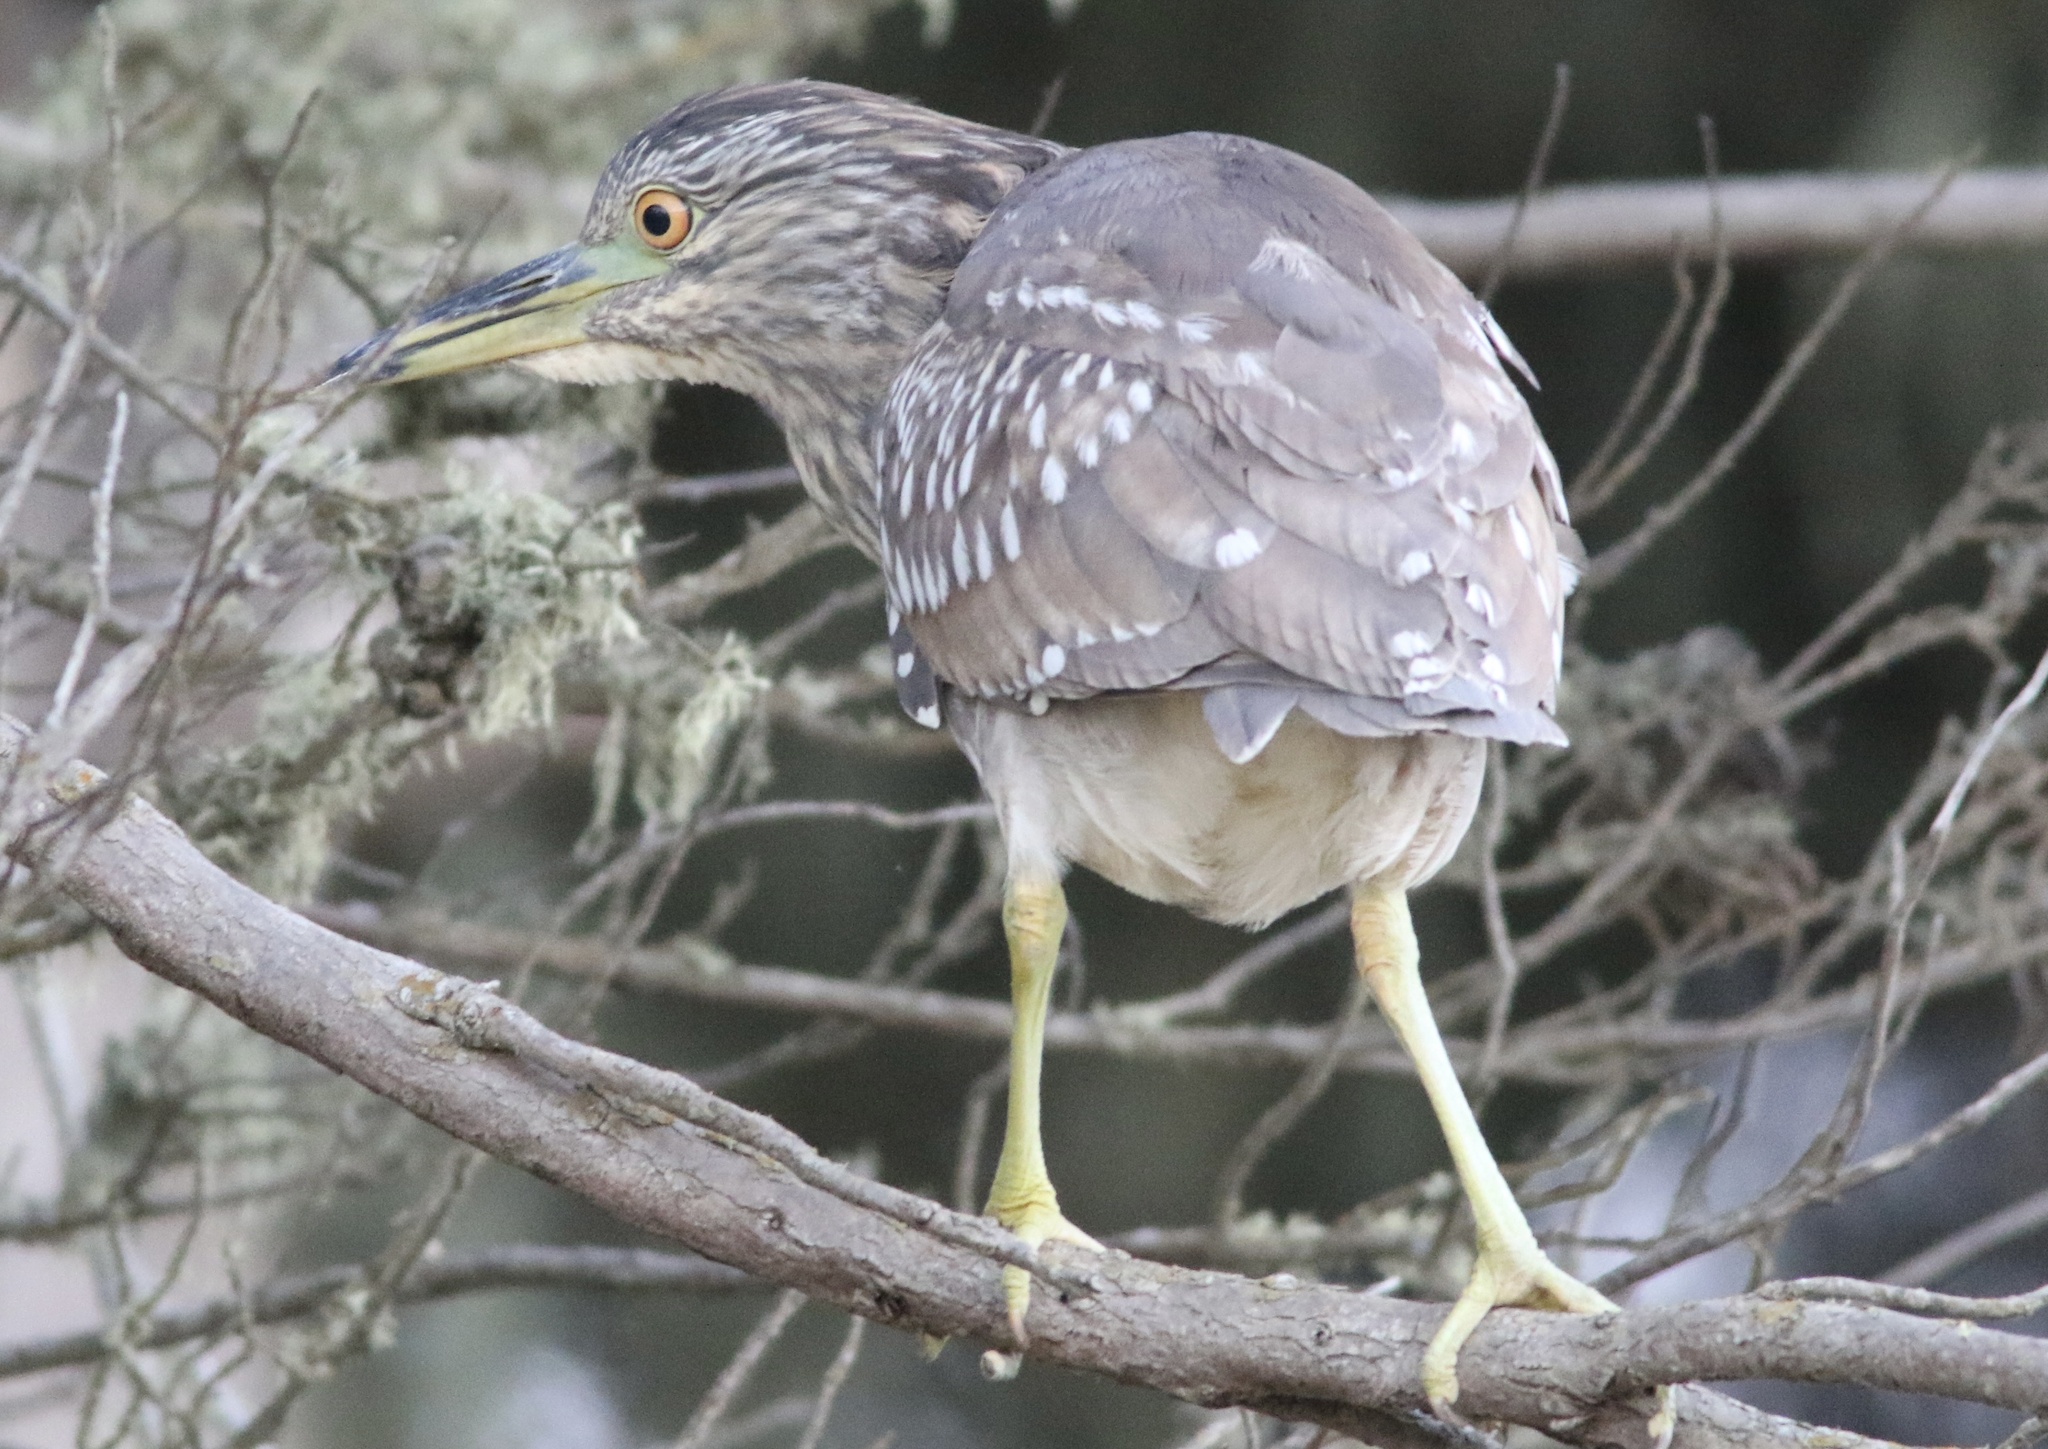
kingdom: Animalia
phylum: Chordata
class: Aves
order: Pelecaniformes
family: Ardeidae
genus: Nycticorax
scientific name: Nycticorax nycticorax
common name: Black-crowned night heron
